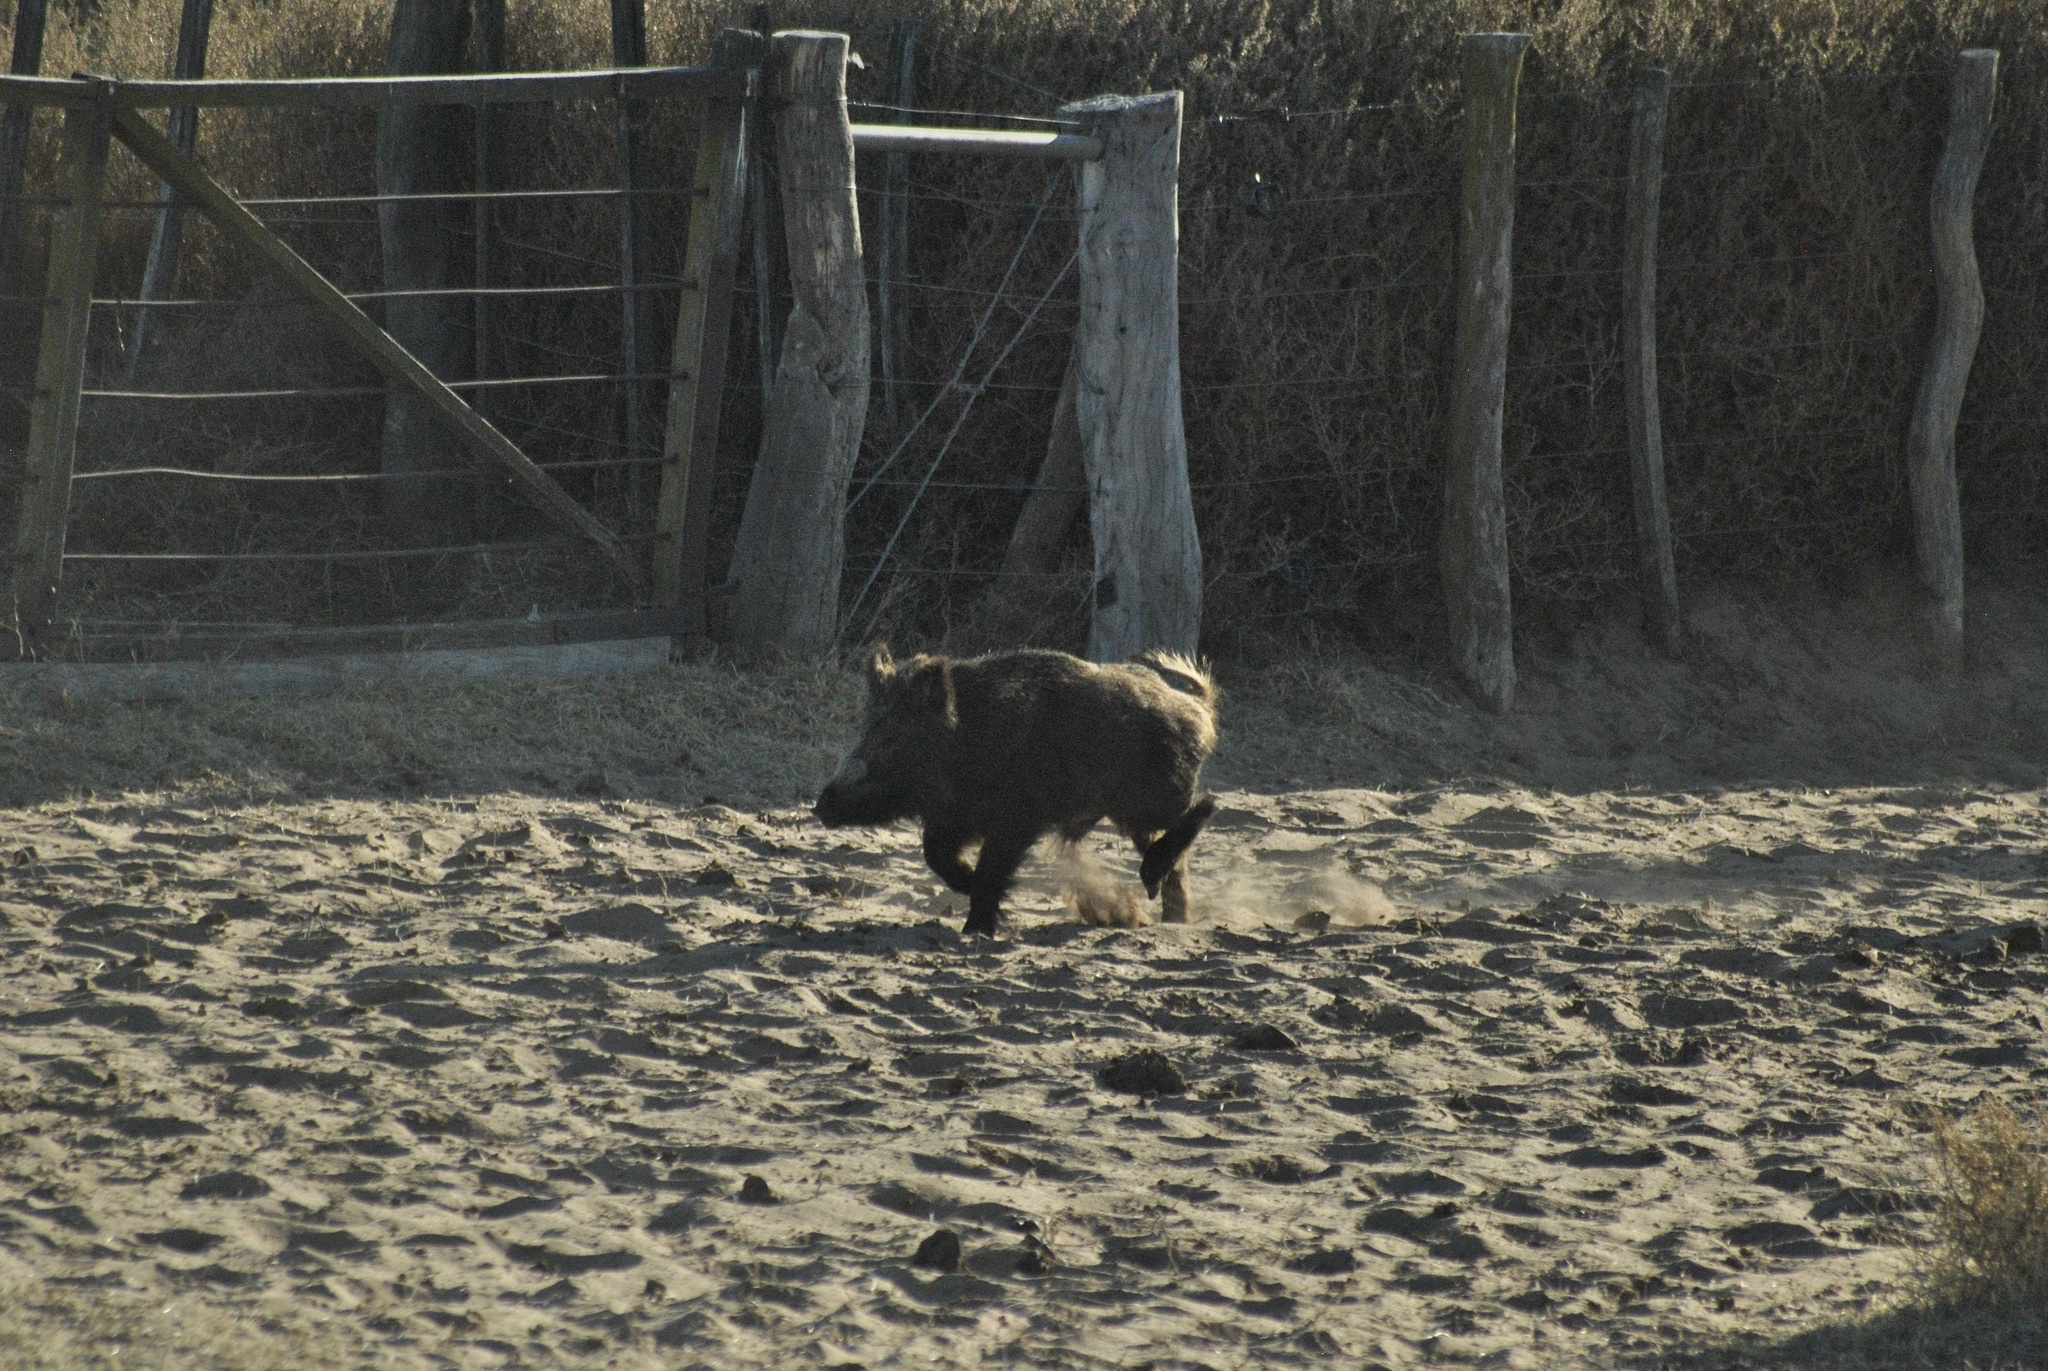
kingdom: Animalia
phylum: Chordata
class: Mammalia
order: Artiodactyla
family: Suidae
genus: Sus
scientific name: Sus scrofa
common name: Wild boar
